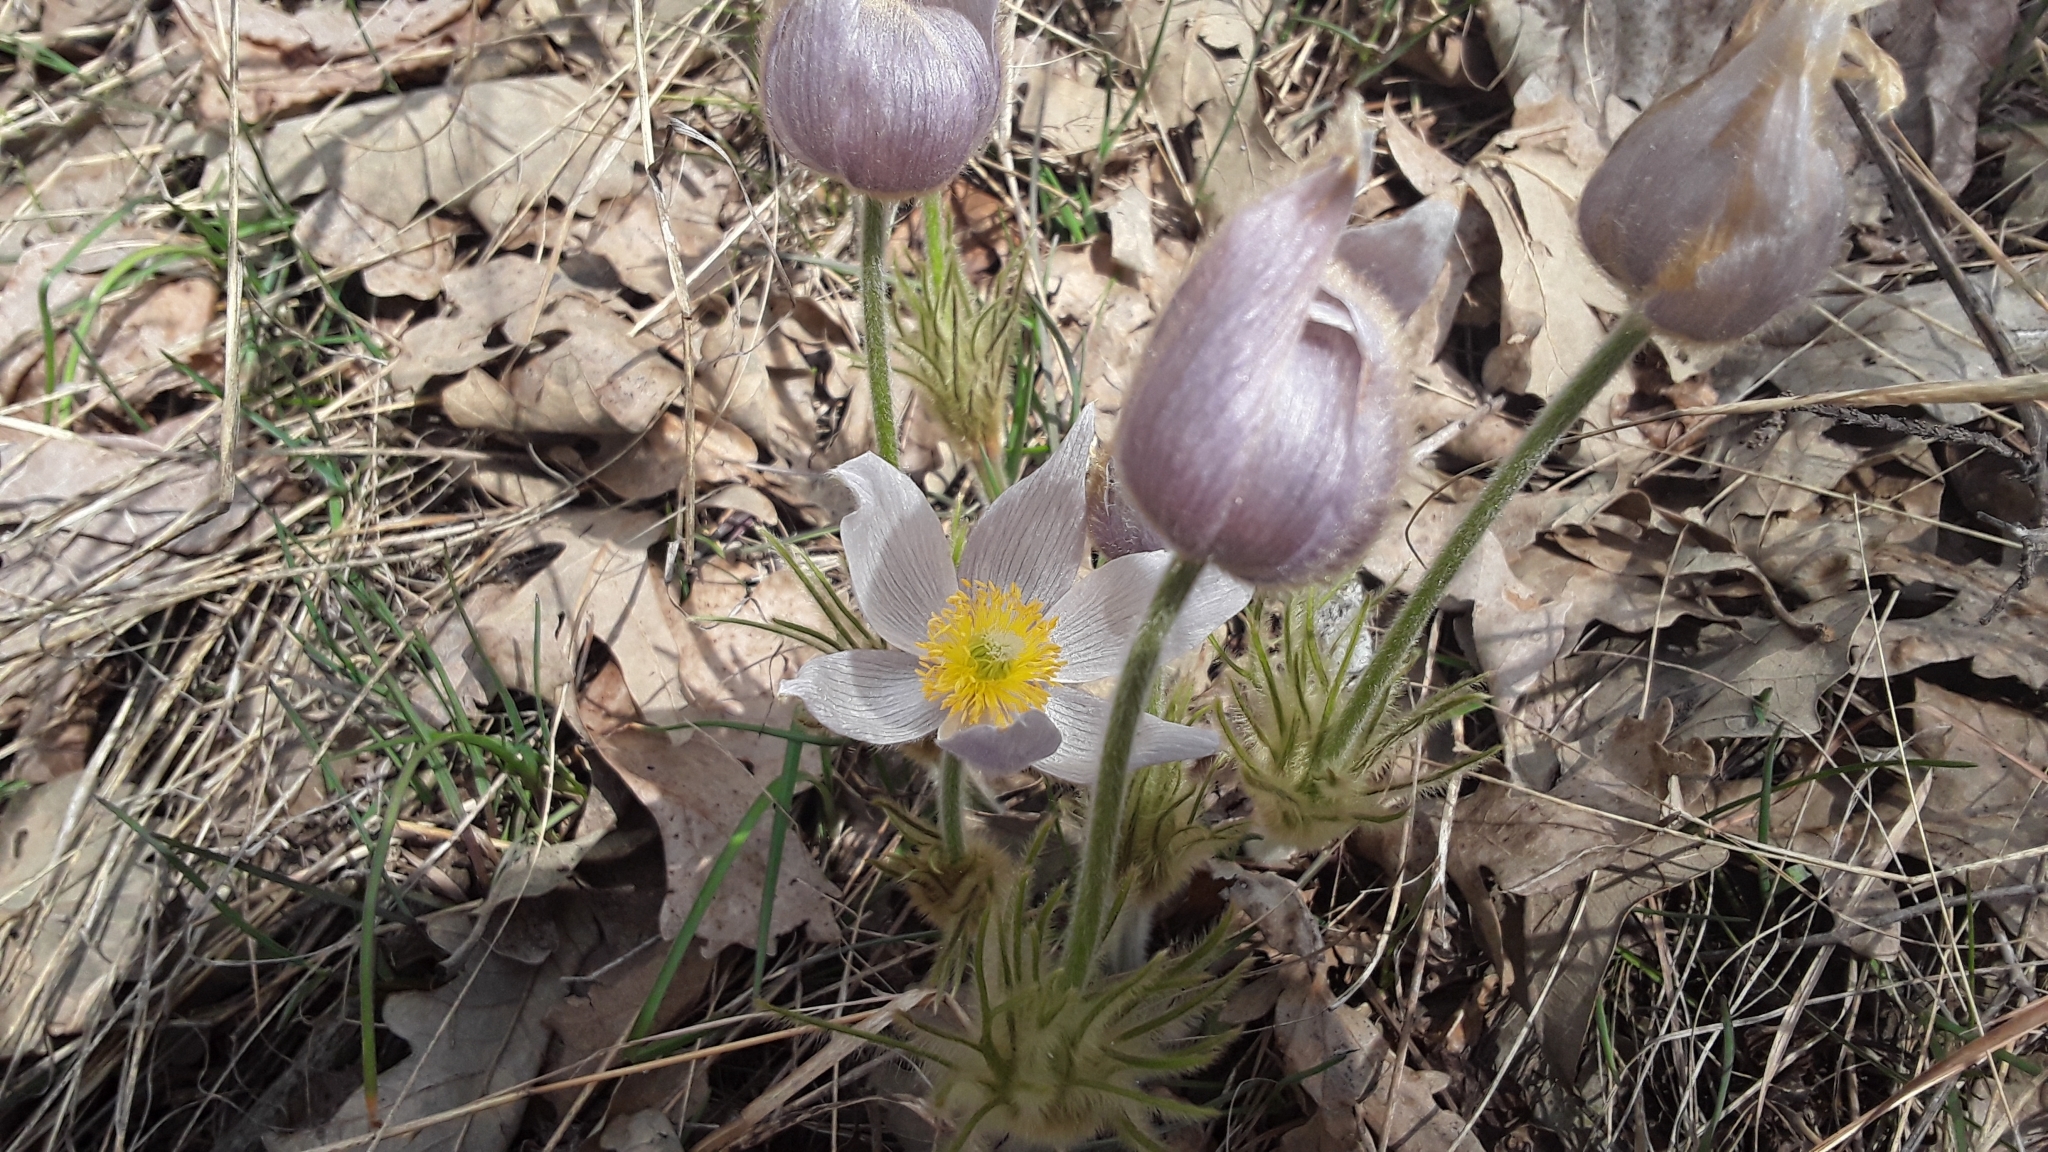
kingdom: Plantae
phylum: Tracheophyta
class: Magnoliopsida
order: Ranunculales
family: Ranunculaceae
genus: Pulsatilla
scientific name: Pulsatilla nuttalliana
